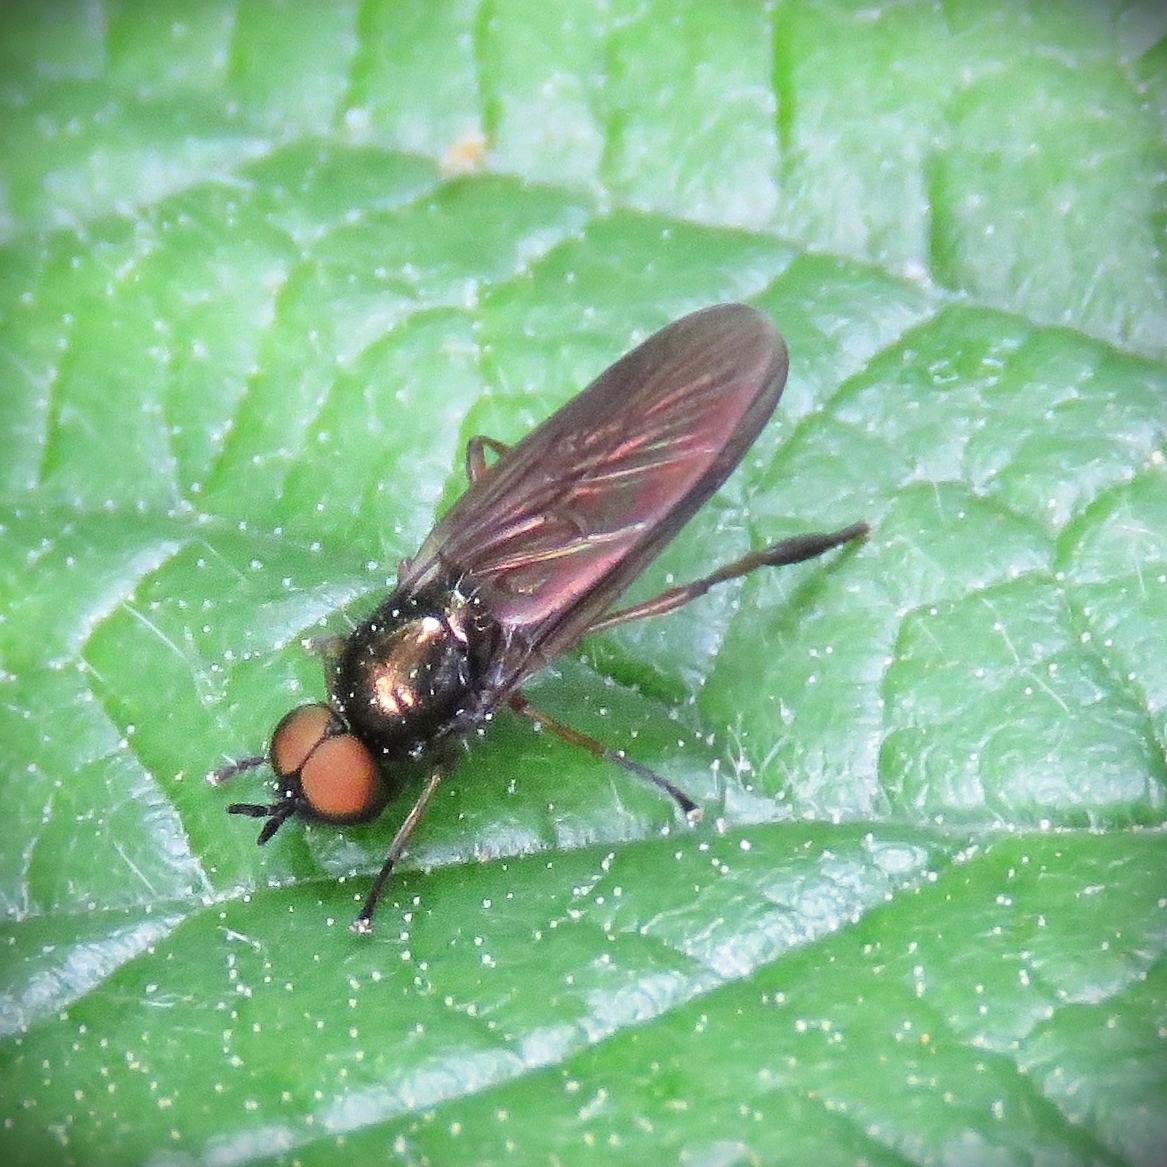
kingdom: Animalia
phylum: Arthropoda
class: Insecta
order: Diptera
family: Stratiomyidae
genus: Beris
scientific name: Beris chalybata
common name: Murky-legged black legionnaire
